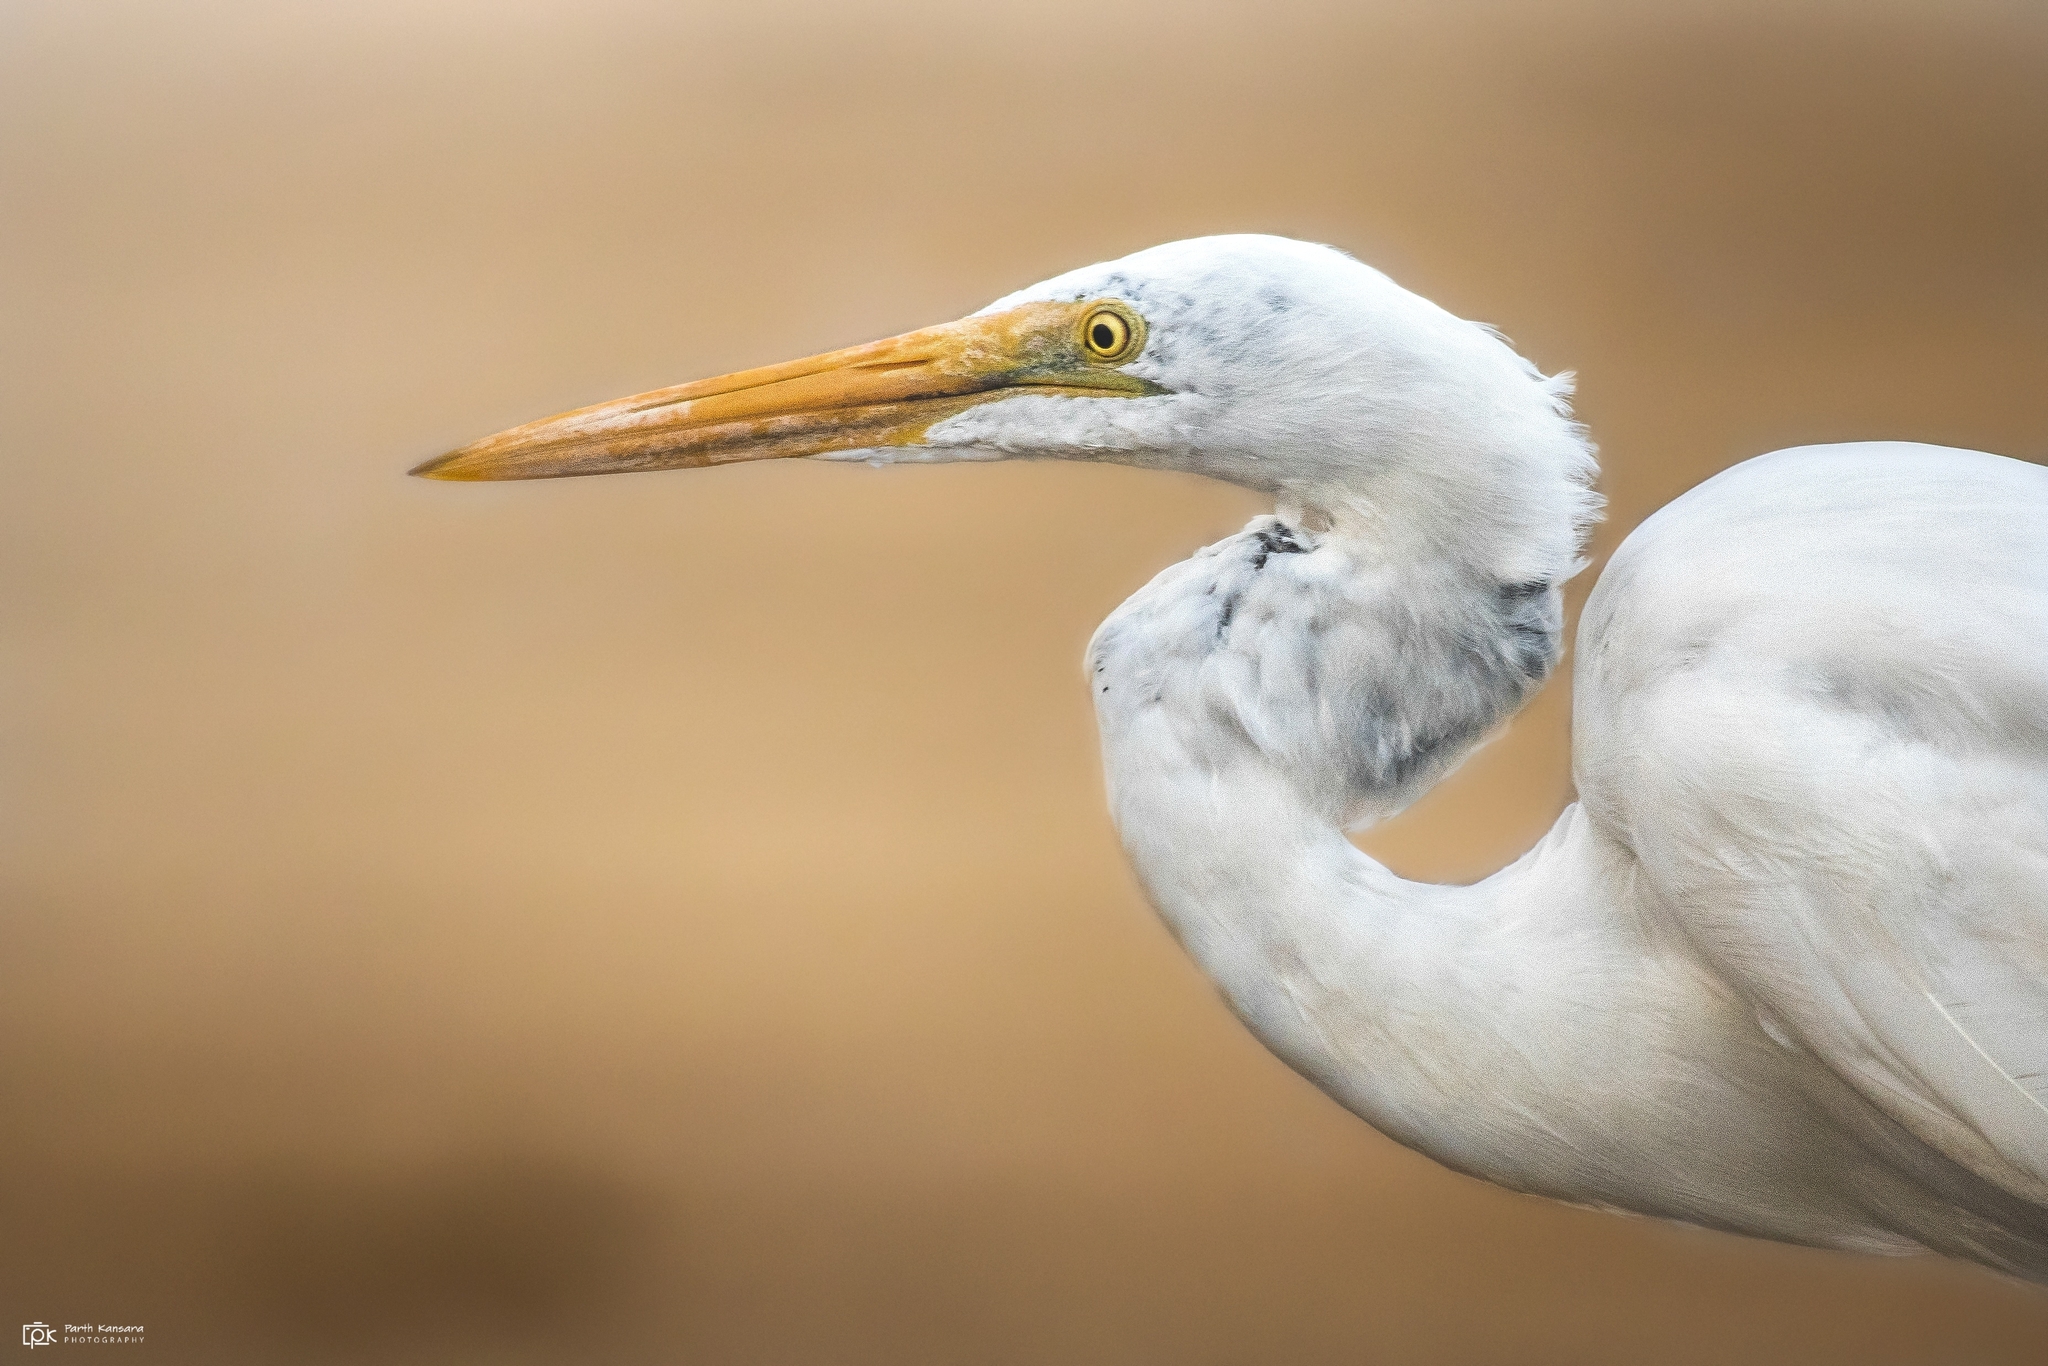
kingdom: Animalia
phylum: Chordata
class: Aves
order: Pelecaniformes
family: Ardeidae
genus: Ardea
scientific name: Ardea alba
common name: Great egret
